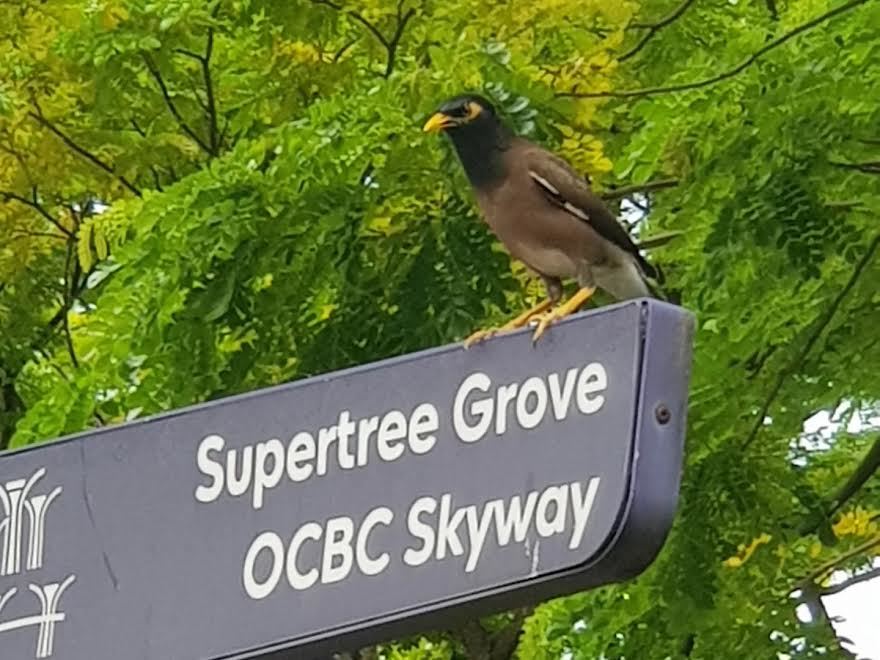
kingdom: Animalia
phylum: Chordata
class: Aves
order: Passeriformes
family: Sturnidae
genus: Acridotheres
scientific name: Acridotheres tristis
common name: Common myna
